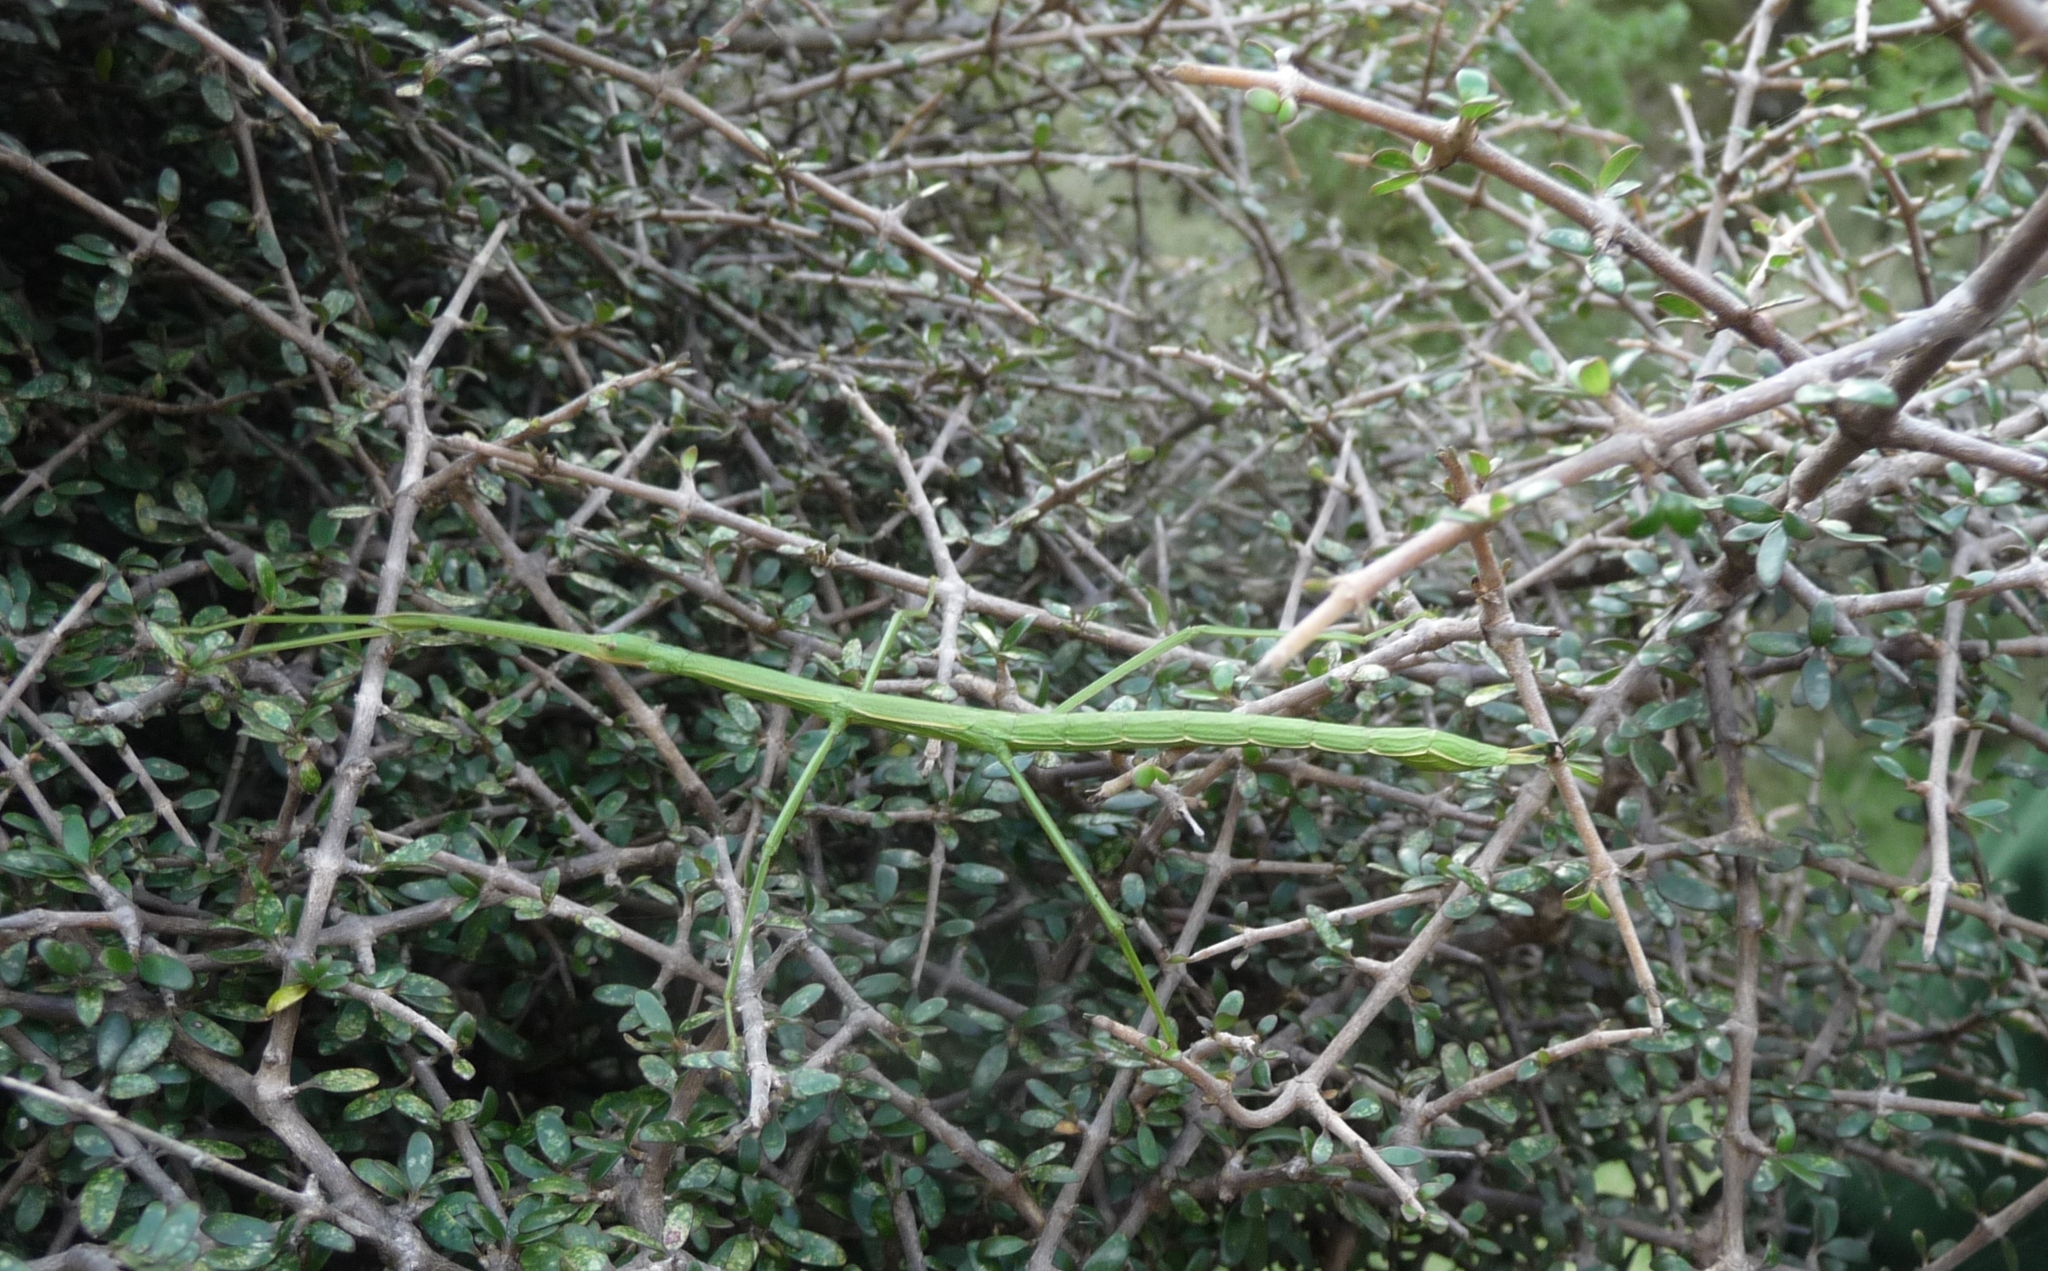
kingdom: Animalia
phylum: Arthropoda
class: Insecta
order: Phasmida
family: Phasmatidae
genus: Clitarchus
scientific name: Clitarchus hookeri
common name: Smooth stick insect
